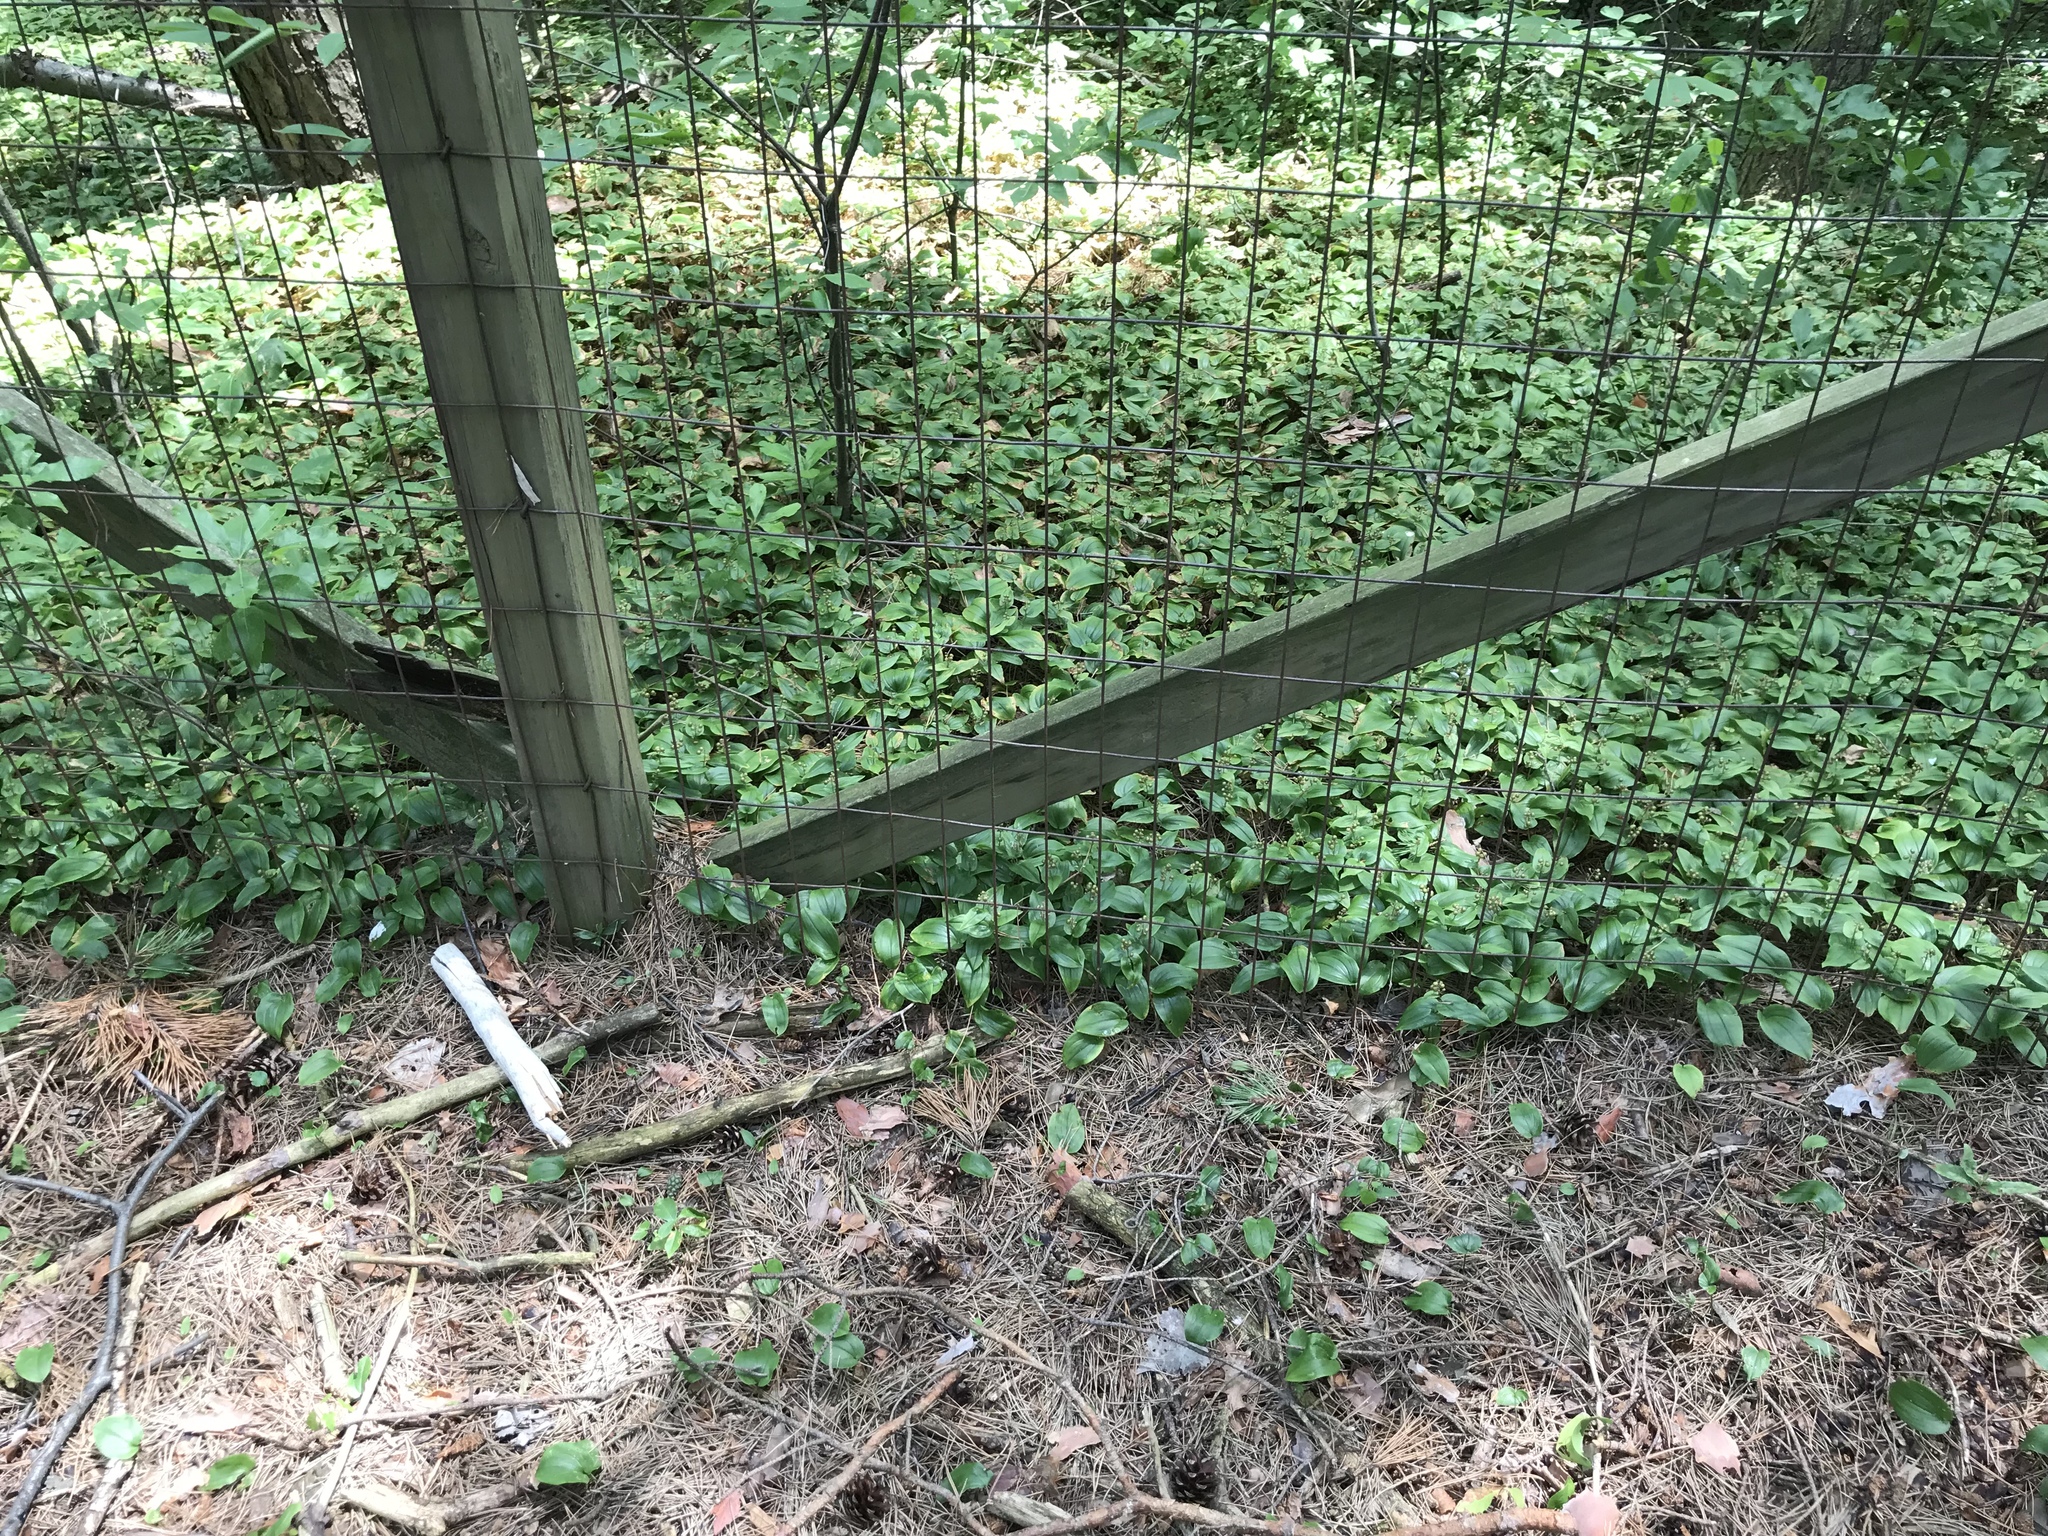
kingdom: Plantae
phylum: Tracheophyta
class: Liliopsida
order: Asparagales
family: Asparagaceae
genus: Maianthemum
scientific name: Maianthemum canadense
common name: False lily-of-the-valley
